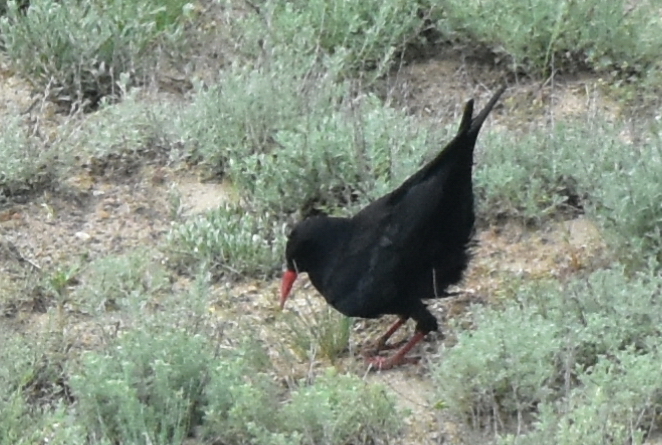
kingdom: Animalia
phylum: Chordata
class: Aves
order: Passeriformes
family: Corvidae
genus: Pyrrhocorax
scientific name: Pyrrhocorax pyrrhocorax
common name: Red-billed chough
